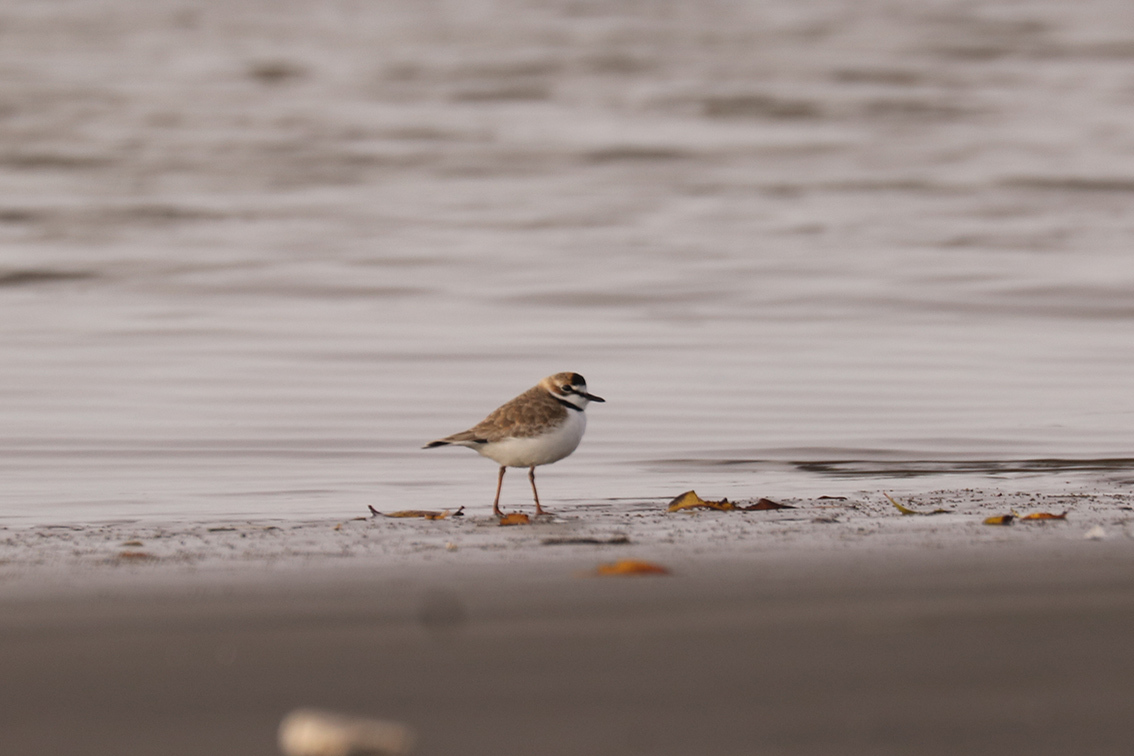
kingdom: Animalia
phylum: Chordata
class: Aves
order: Charadriiformes
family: Charadriidae
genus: Anarhynchus
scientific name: Anarhynchus
